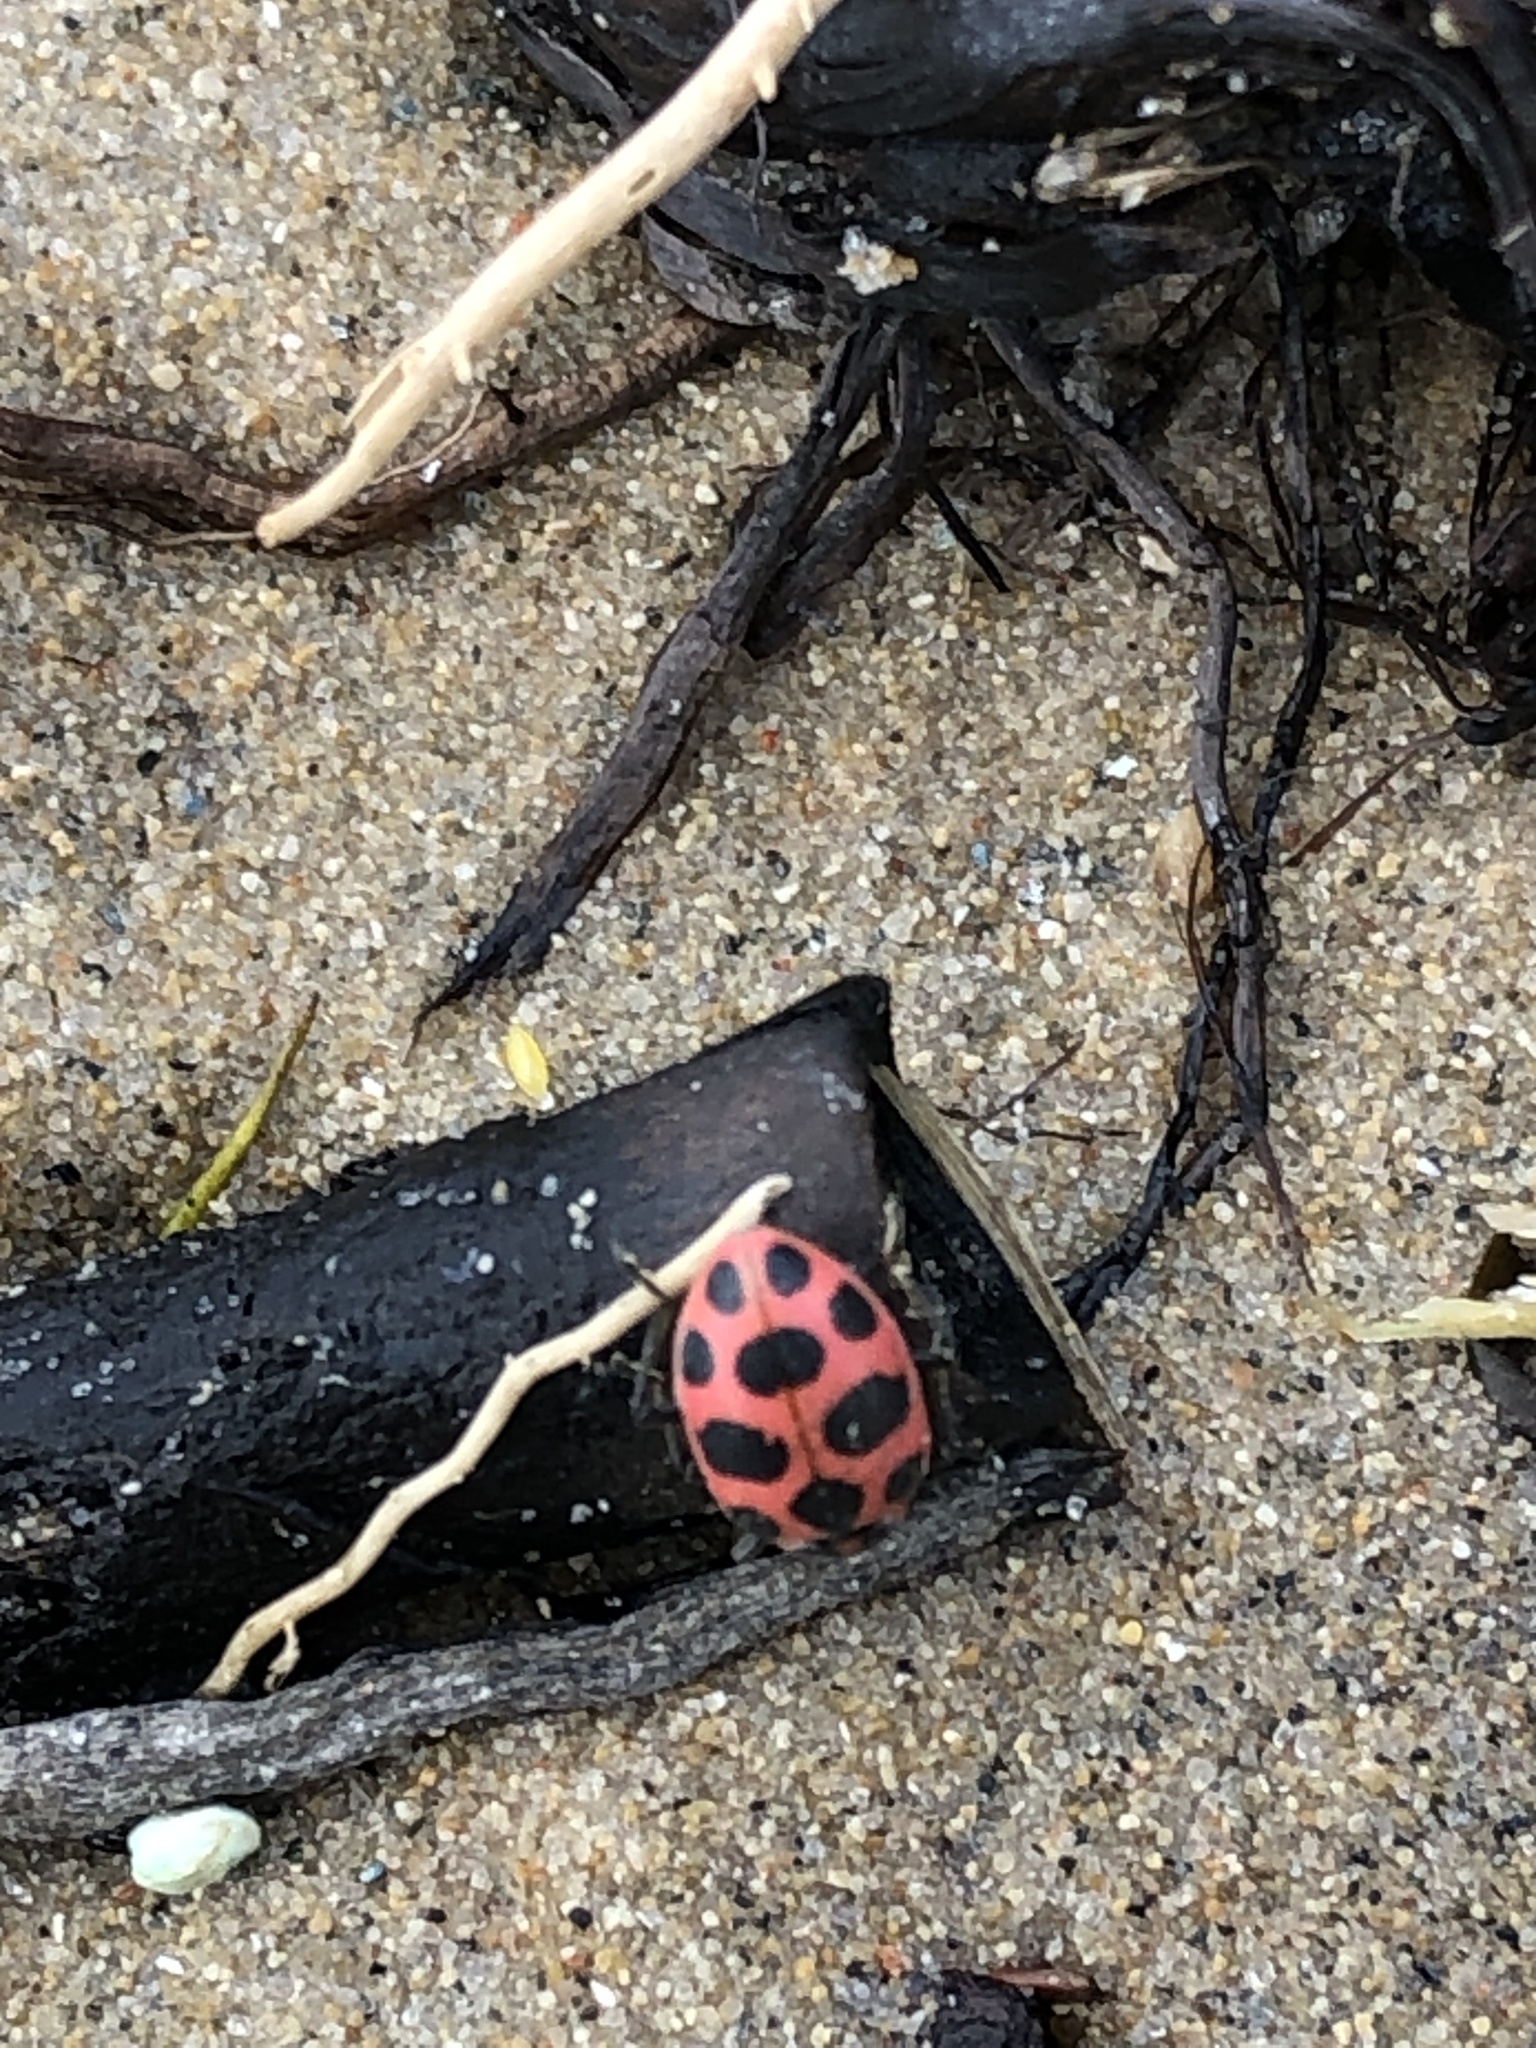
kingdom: Animalia
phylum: Arthropoda
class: Insecta
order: Coleoptera
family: Coccinellidae
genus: Coleomegilla
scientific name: Coleomegilla maculata
